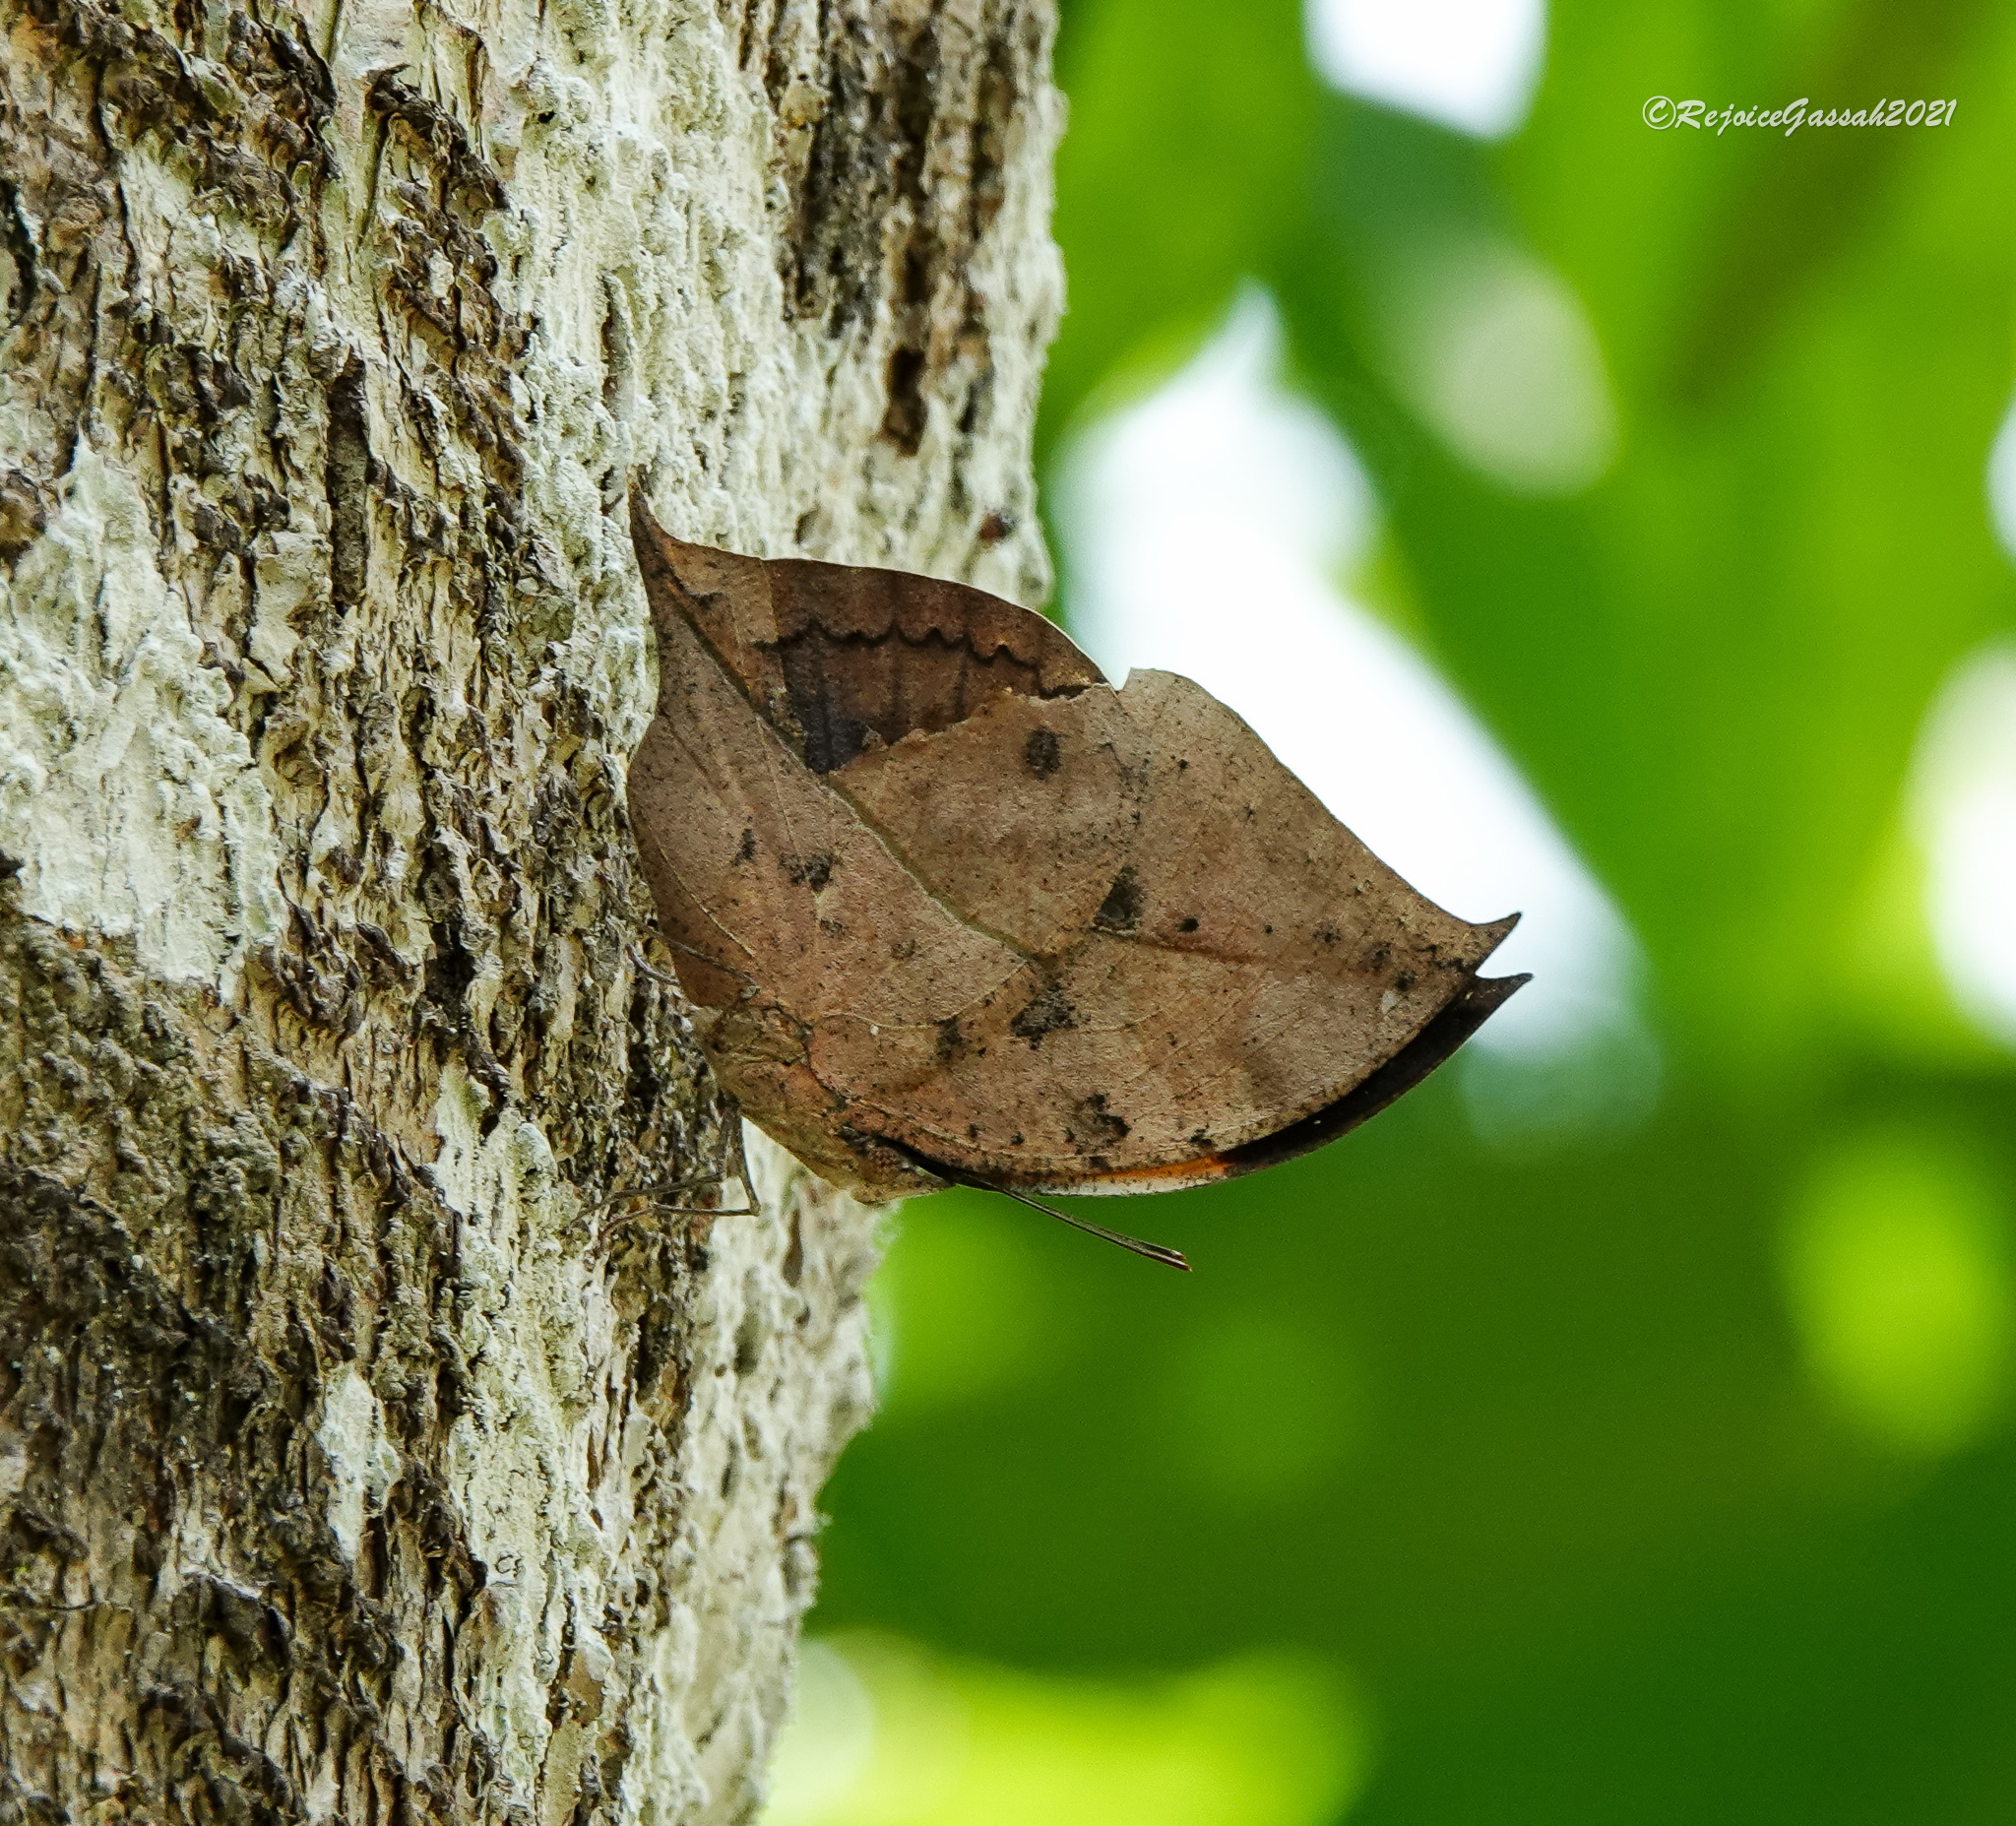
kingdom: Animalia
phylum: Arthropoda
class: Insecta
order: Lepidoptera
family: Nymphalidae
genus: Kallima
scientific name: Kallima inachus
